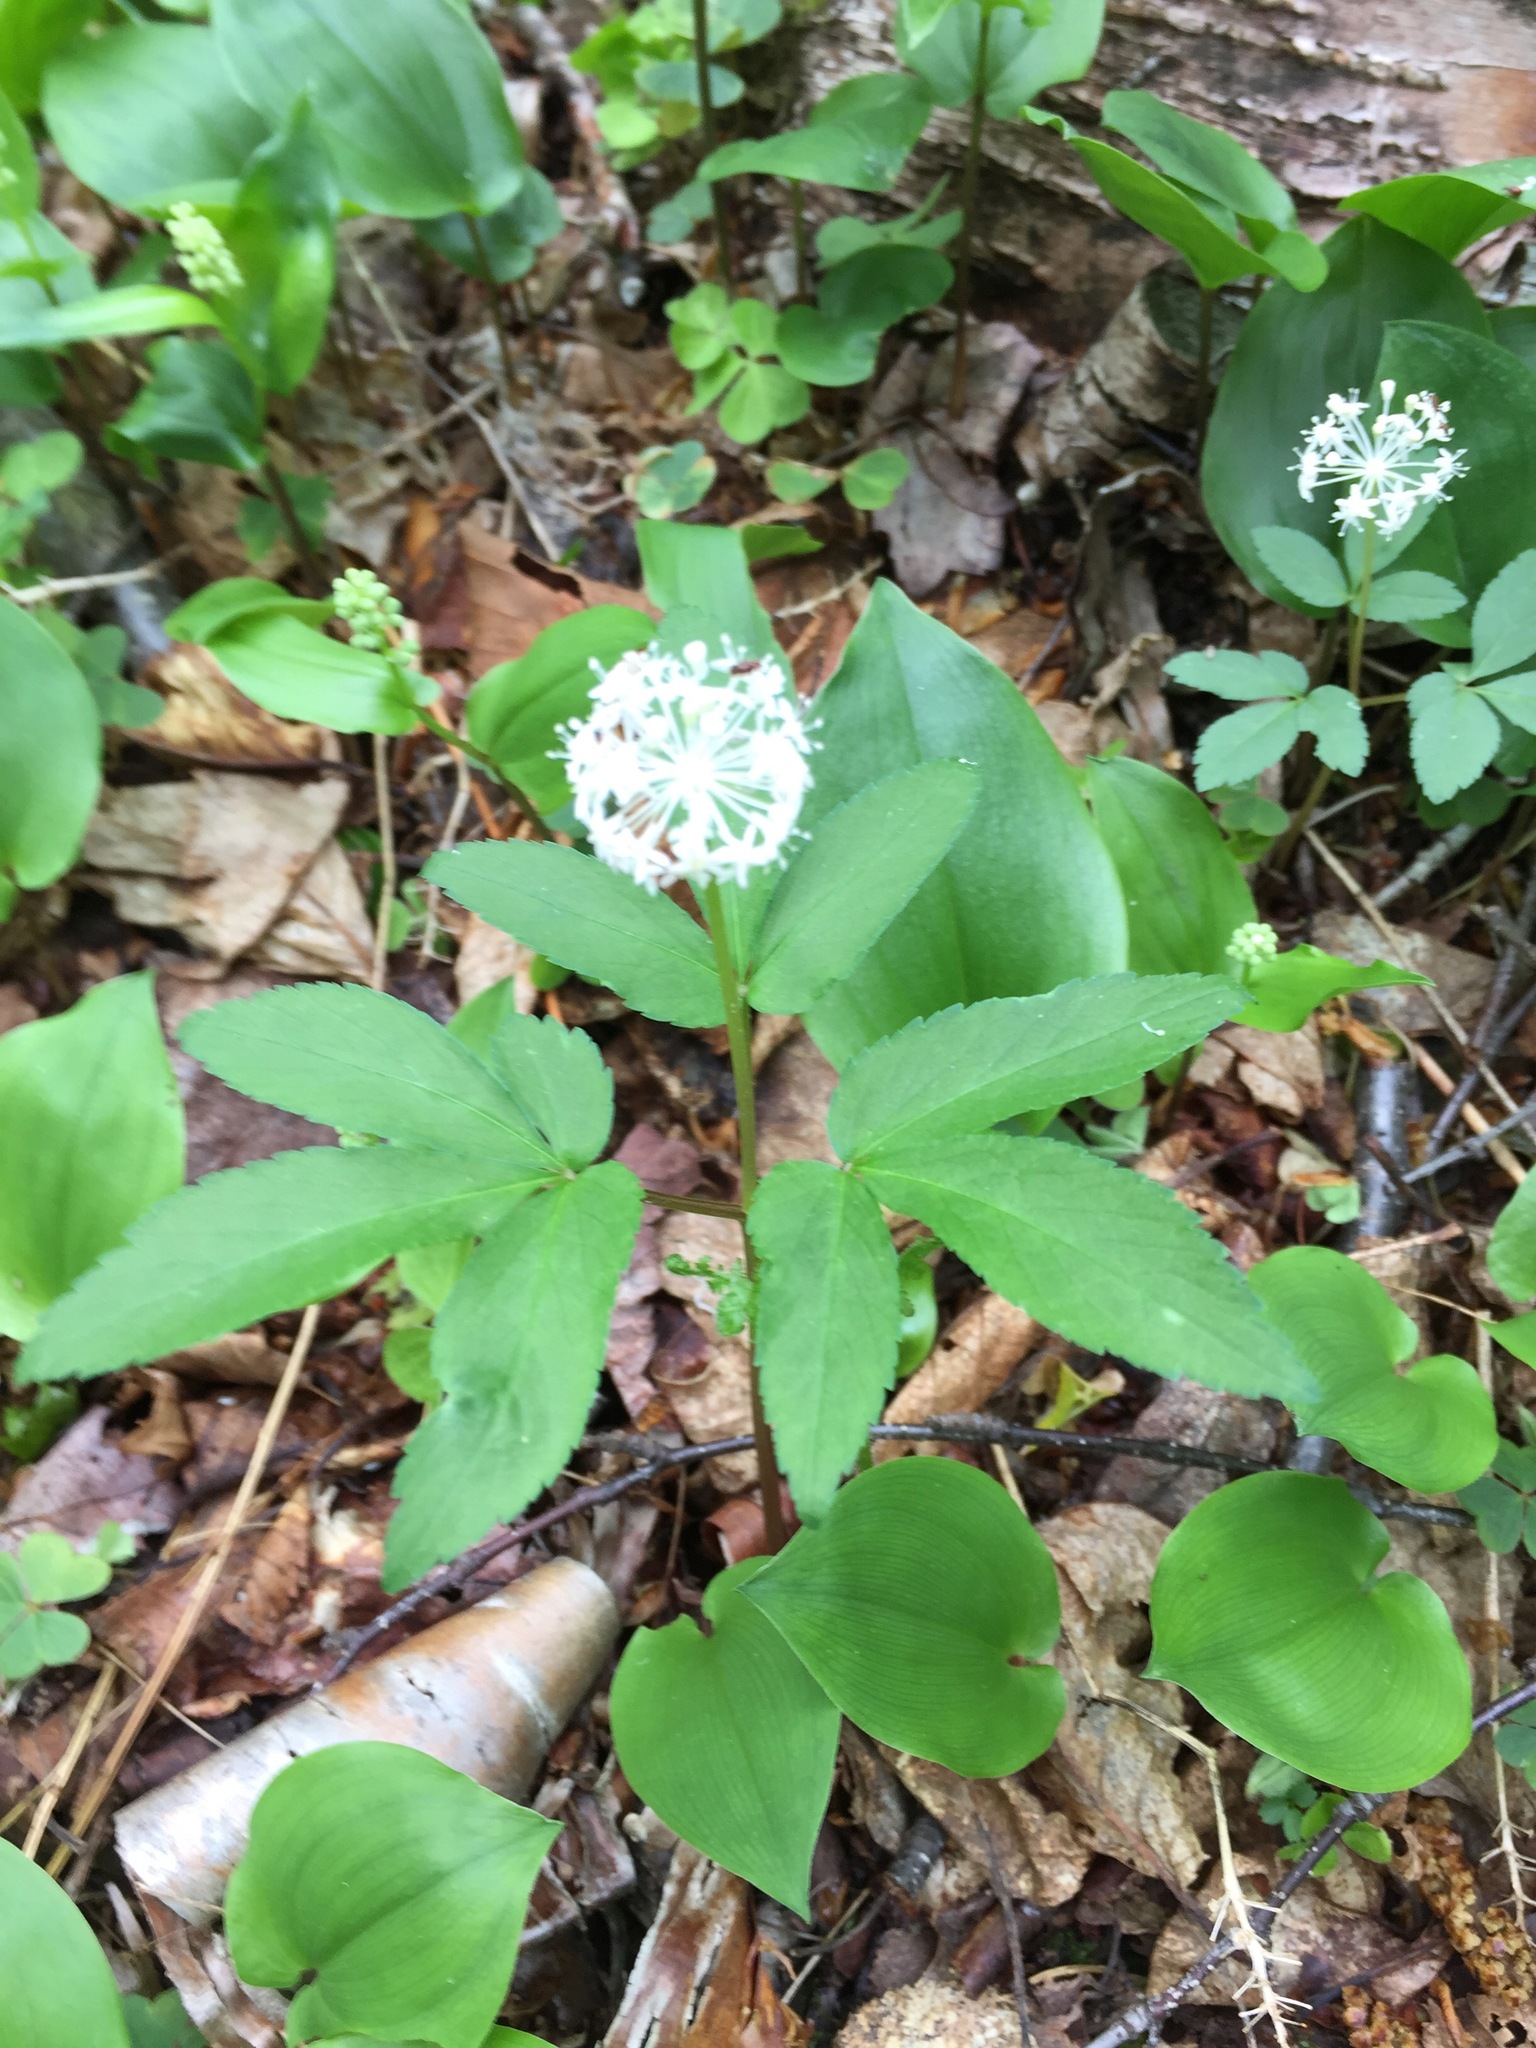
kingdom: Plantae
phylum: Tracheophyta
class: Magnoliopsida
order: Apiales
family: Araliaceae
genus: Panax
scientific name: Panax trifolius
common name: Dwarf ginseng
